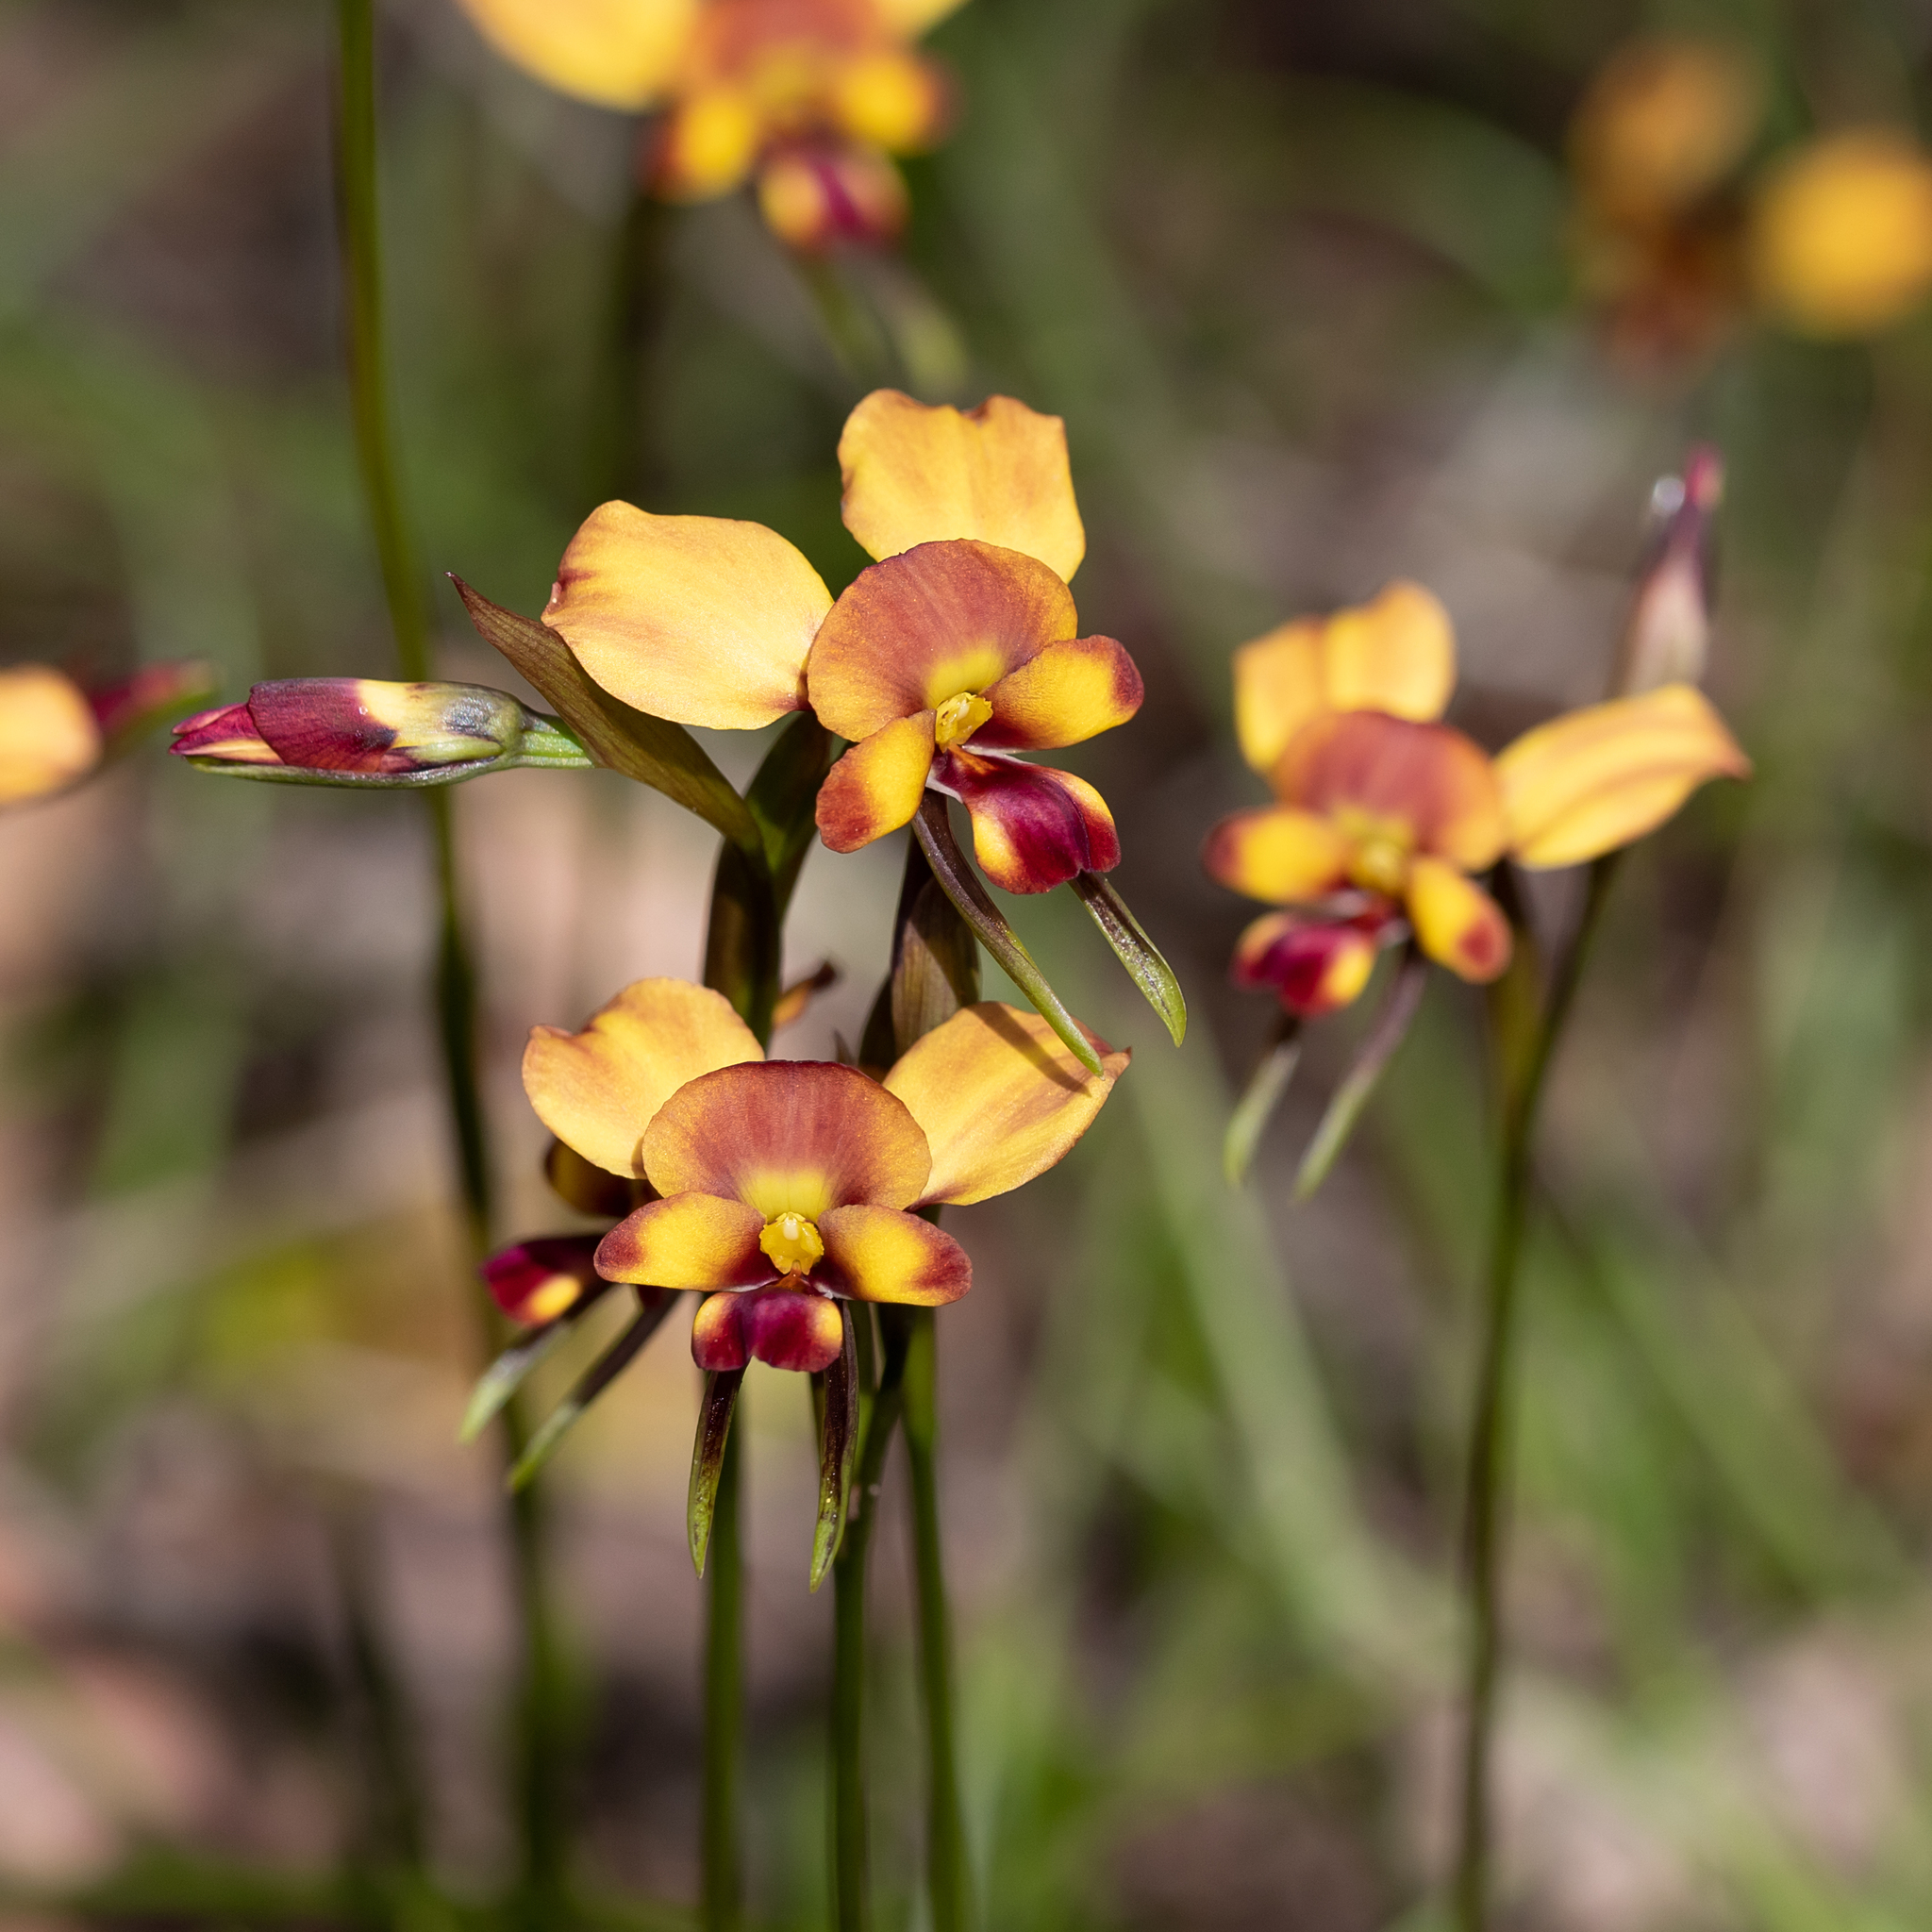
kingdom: Plantae
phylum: Tracheophyta
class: Liliopsida
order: Asparagales
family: Orchidaceae
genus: Diuris
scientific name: Diuris orientis
